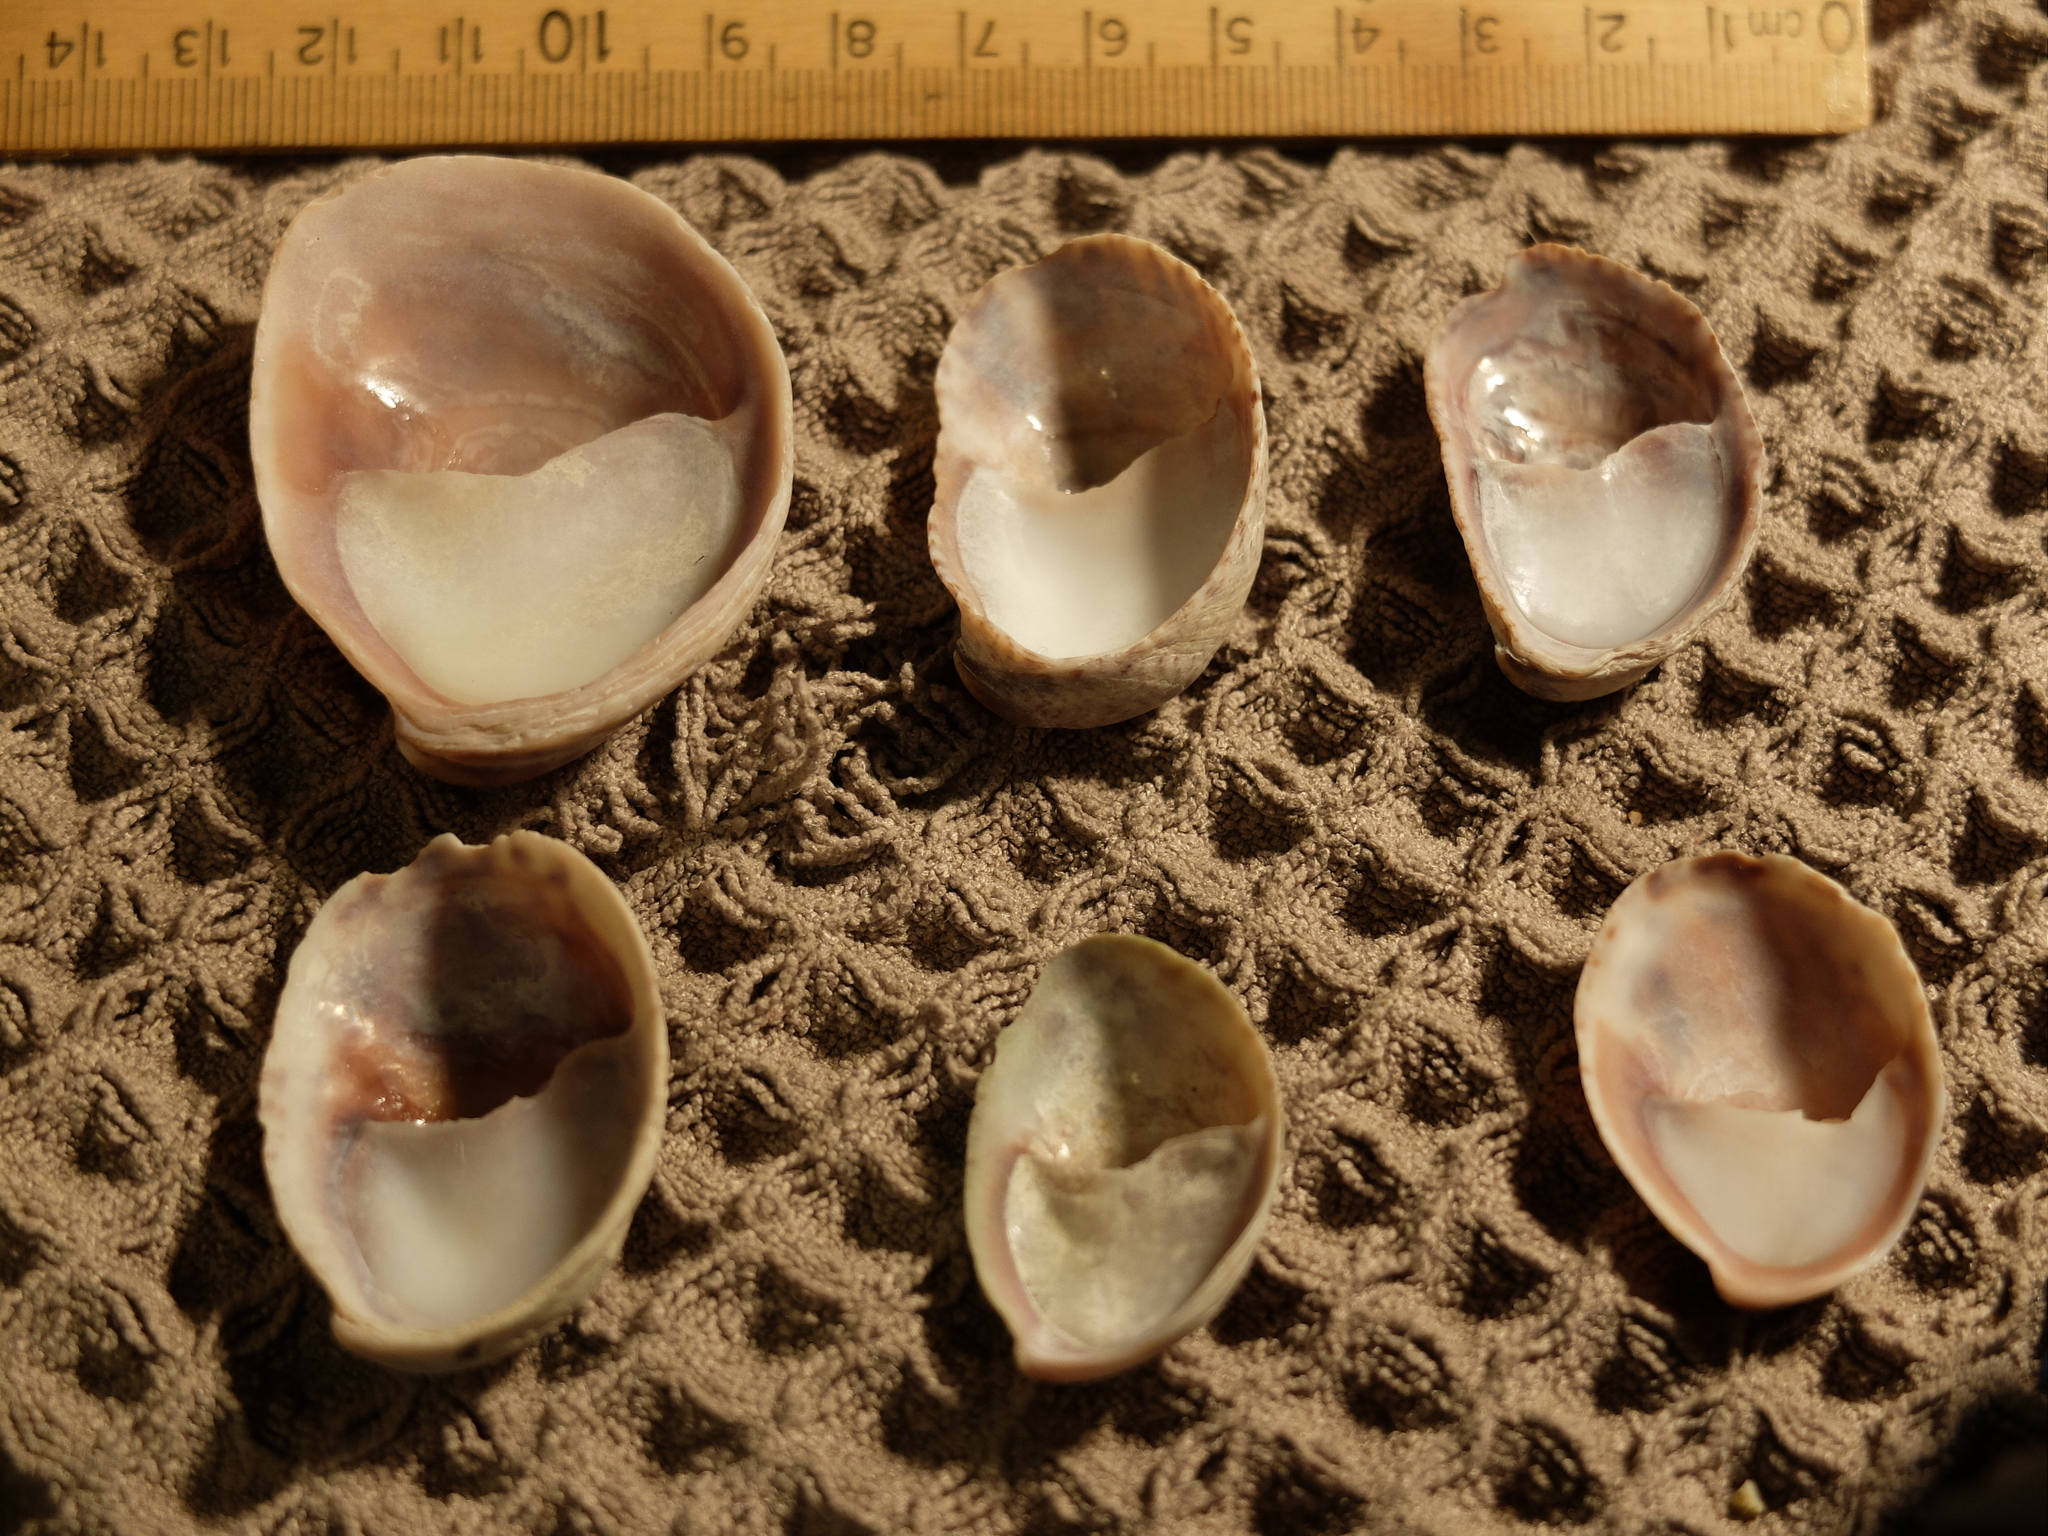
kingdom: Animalia
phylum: Mollusca
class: Gastropoda
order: Littorinimorpha
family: Calyptraeidae
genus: Crepidula
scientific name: Crepidula fornicata
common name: Slipper limpet
